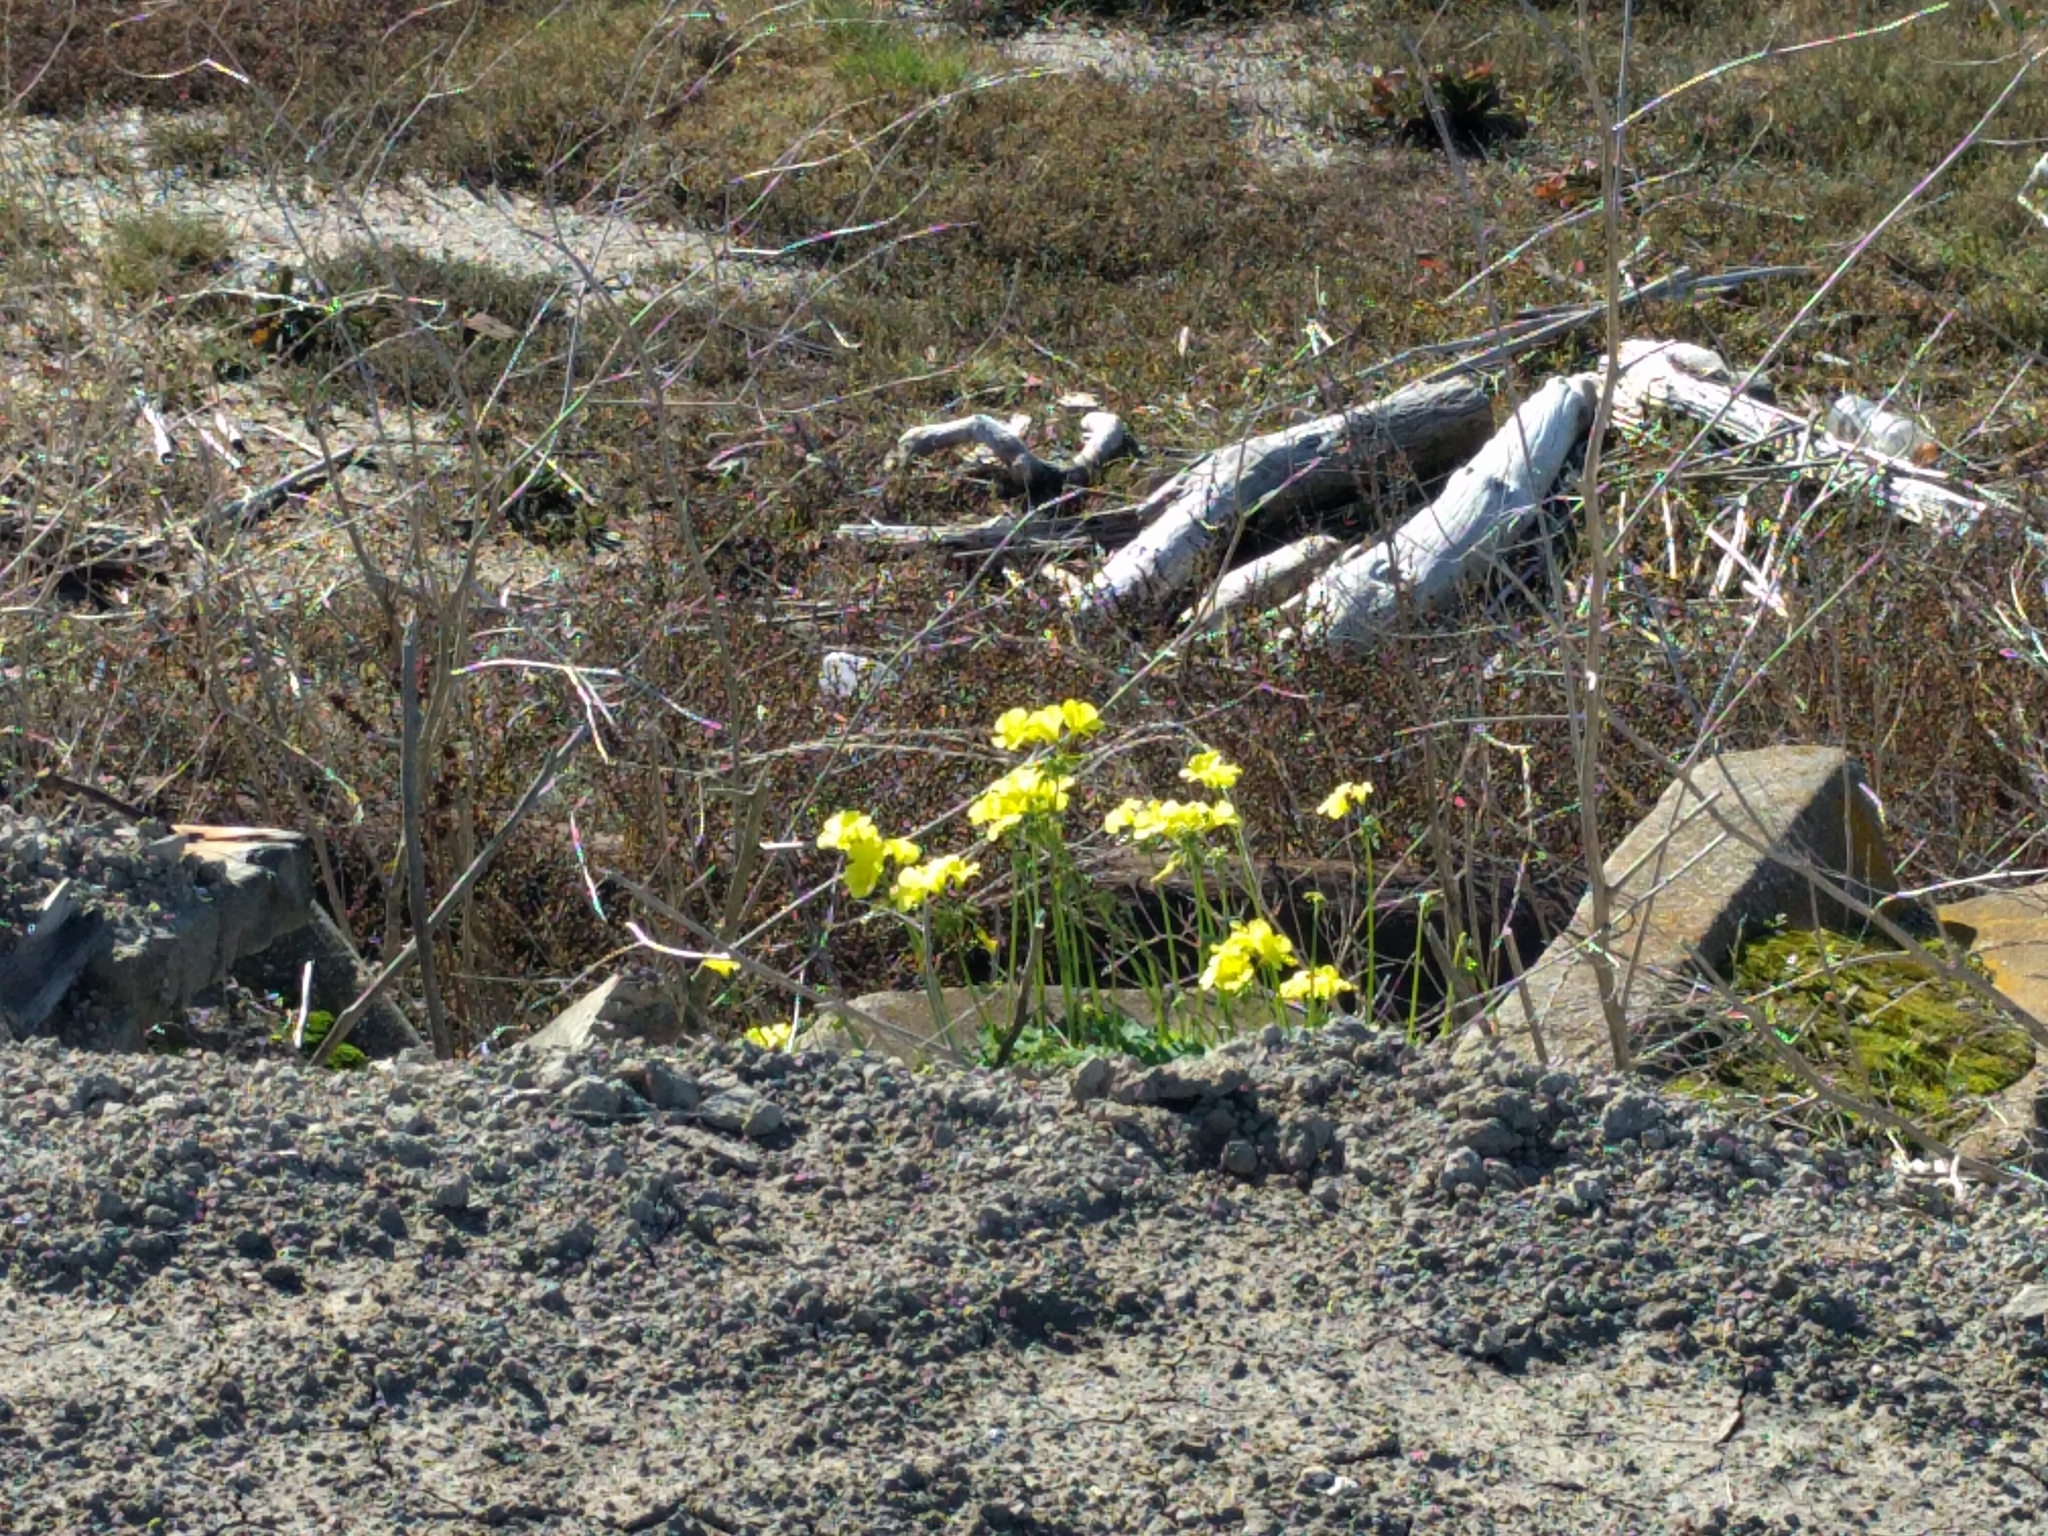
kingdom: Plantae
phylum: Tracheophyta
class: Magnoliopsida
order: Oxalidales
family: Oxalidaceae
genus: Oxalis
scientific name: Oxalis pes-caprae
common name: Bermuda-buttercup
